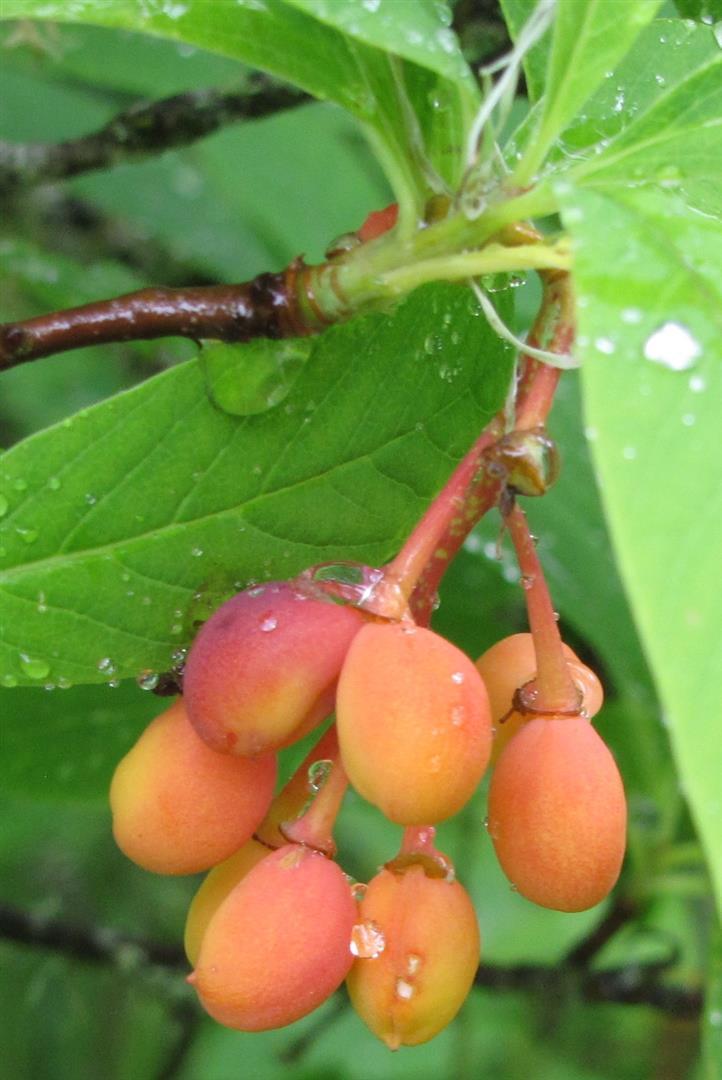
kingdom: Plantae
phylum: Tracheophyta
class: Magnoliopsida
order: Rosales
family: Rosaceae
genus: Oemleria
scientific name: Oemleria cerasiformis
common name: Osoberry
